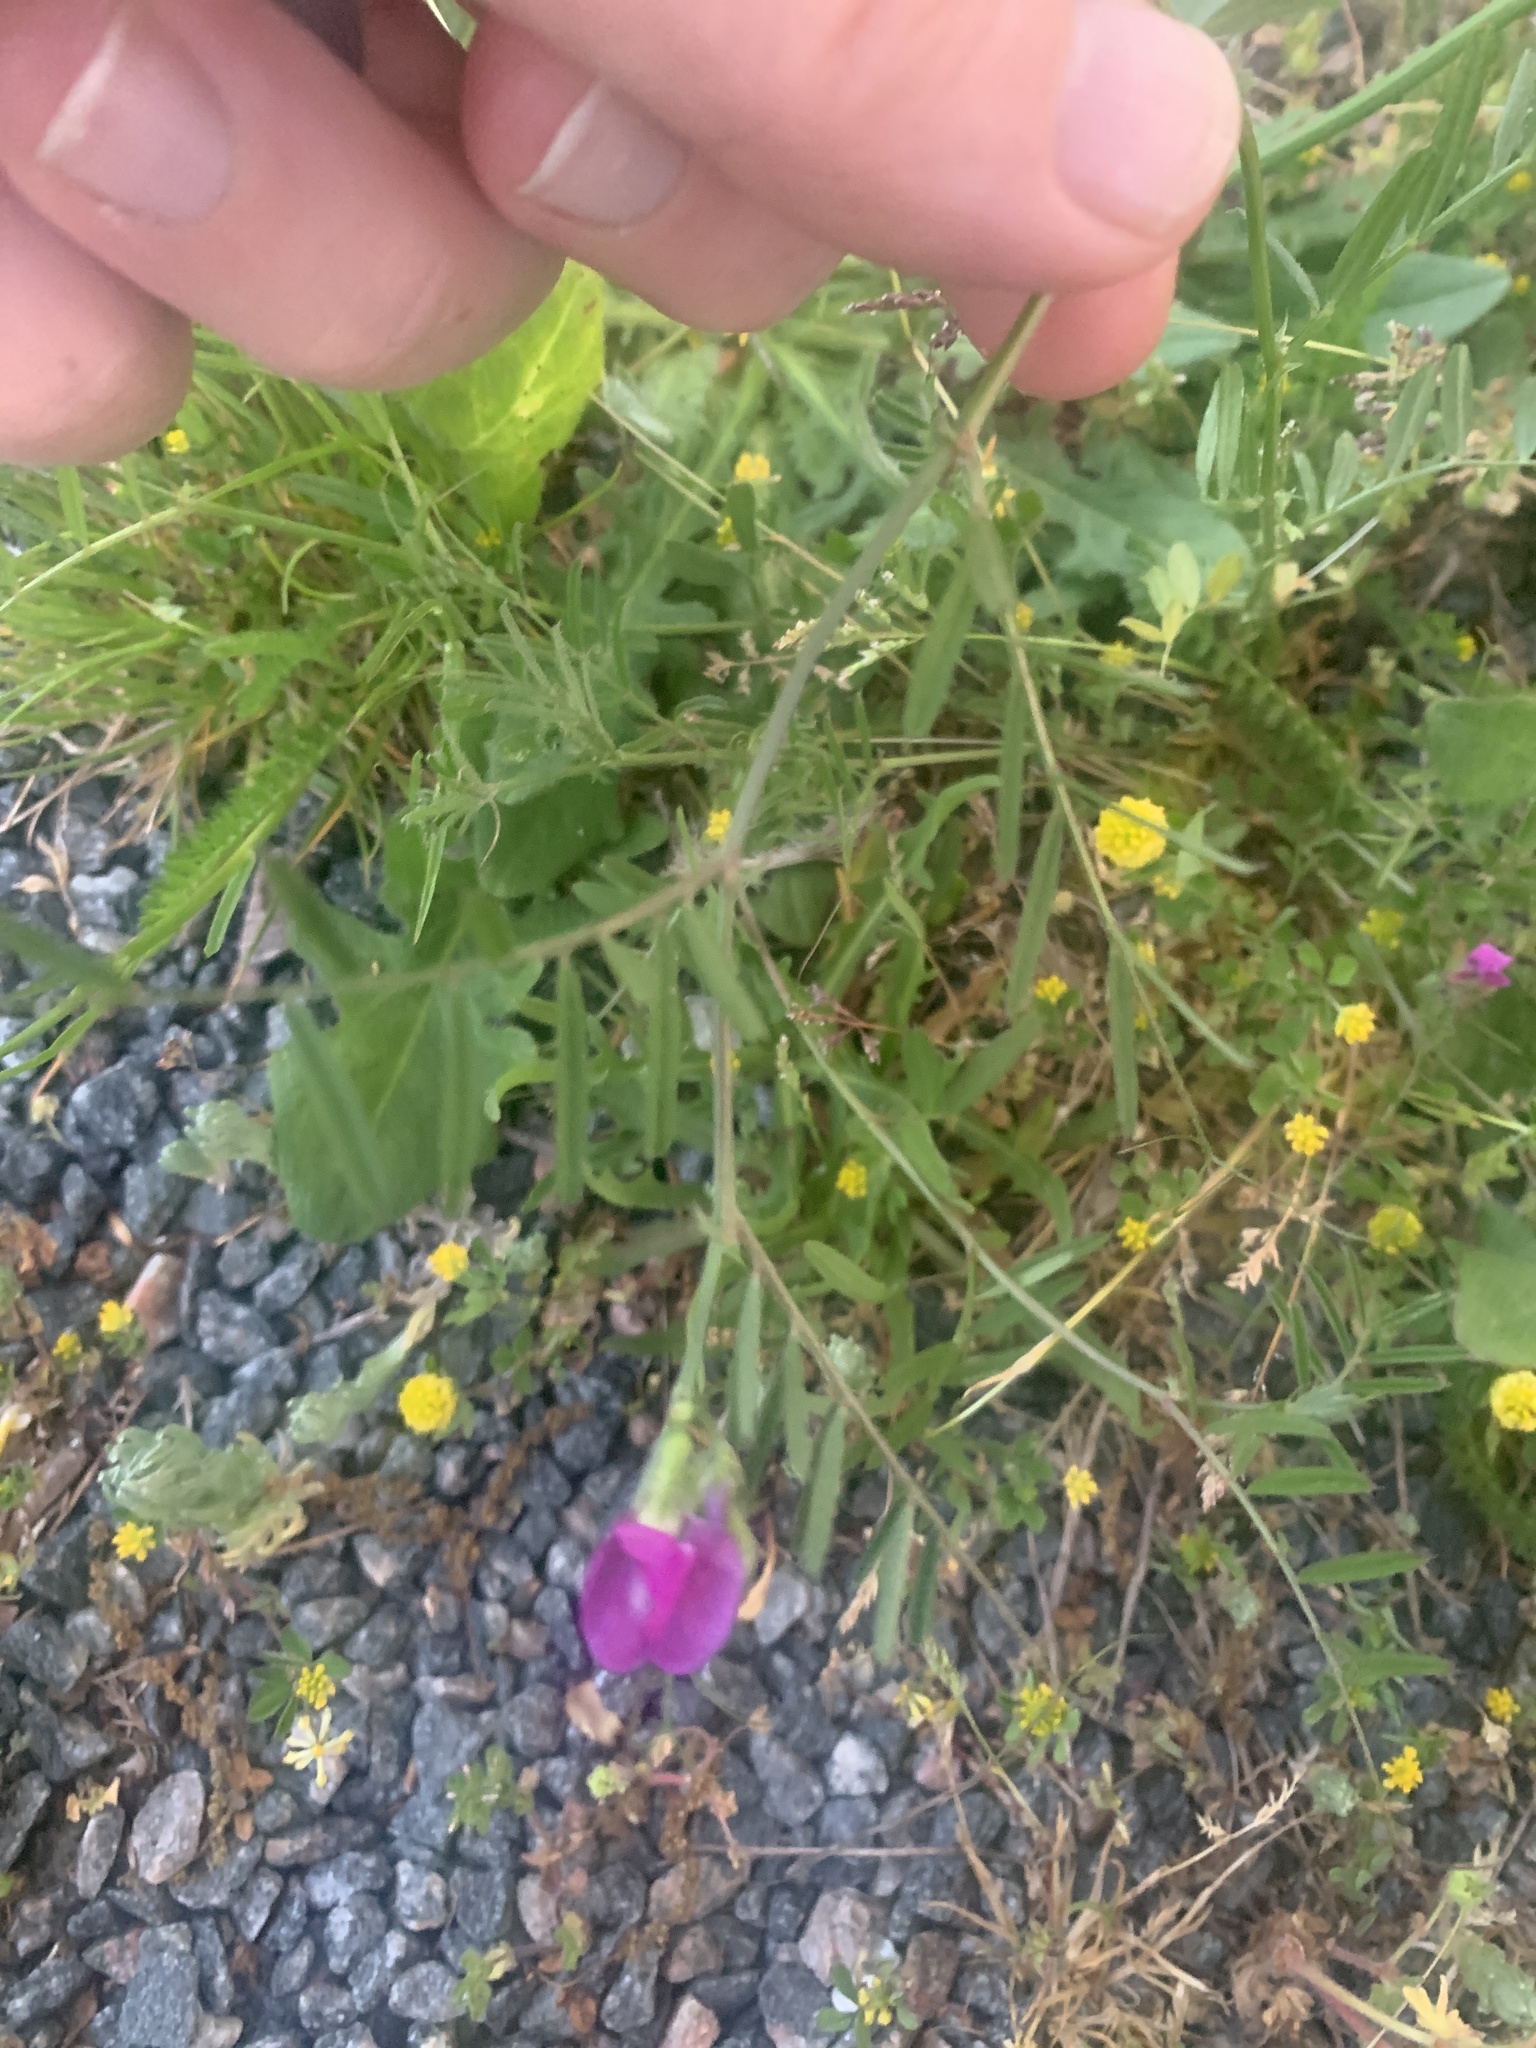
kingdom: Plantae
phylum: Tracheophyta
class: Magnoliopsida
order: Fabales
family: Fabaceae
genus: Vicia
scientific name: Vicia sativa
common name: Garden vetch
